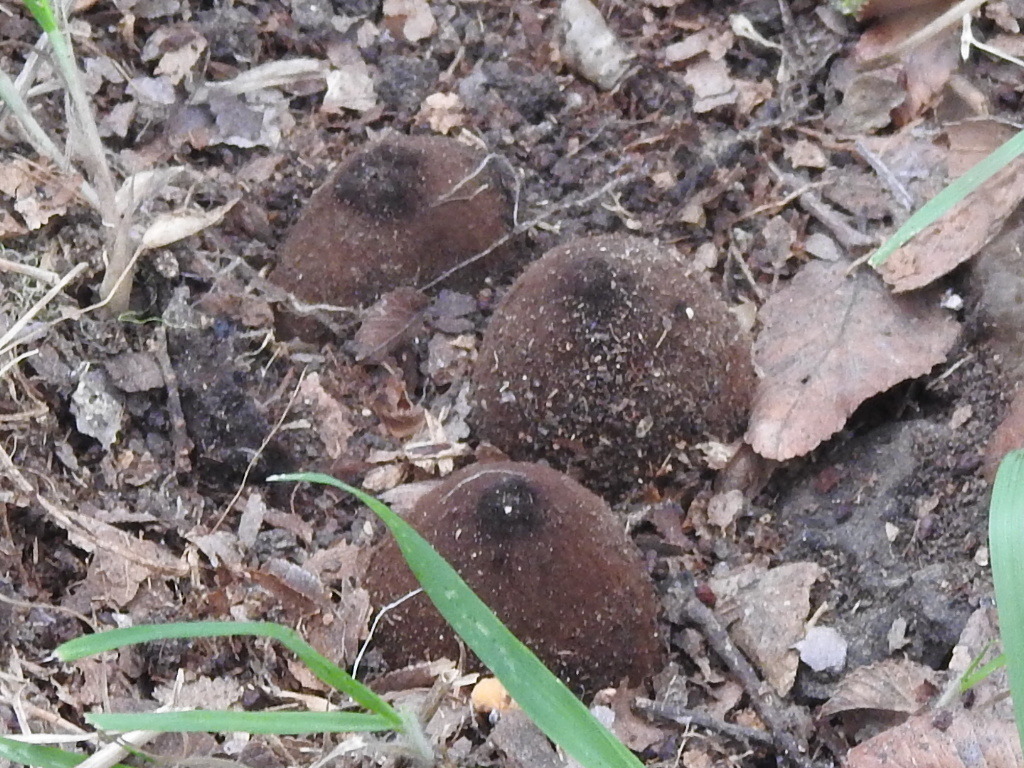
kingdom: Fungi
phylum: Ascomycota
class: Pezizomycetes
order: Pezizales
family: Chorioactidaceae
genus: Chorioactis
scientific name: Chorioactis geaster
